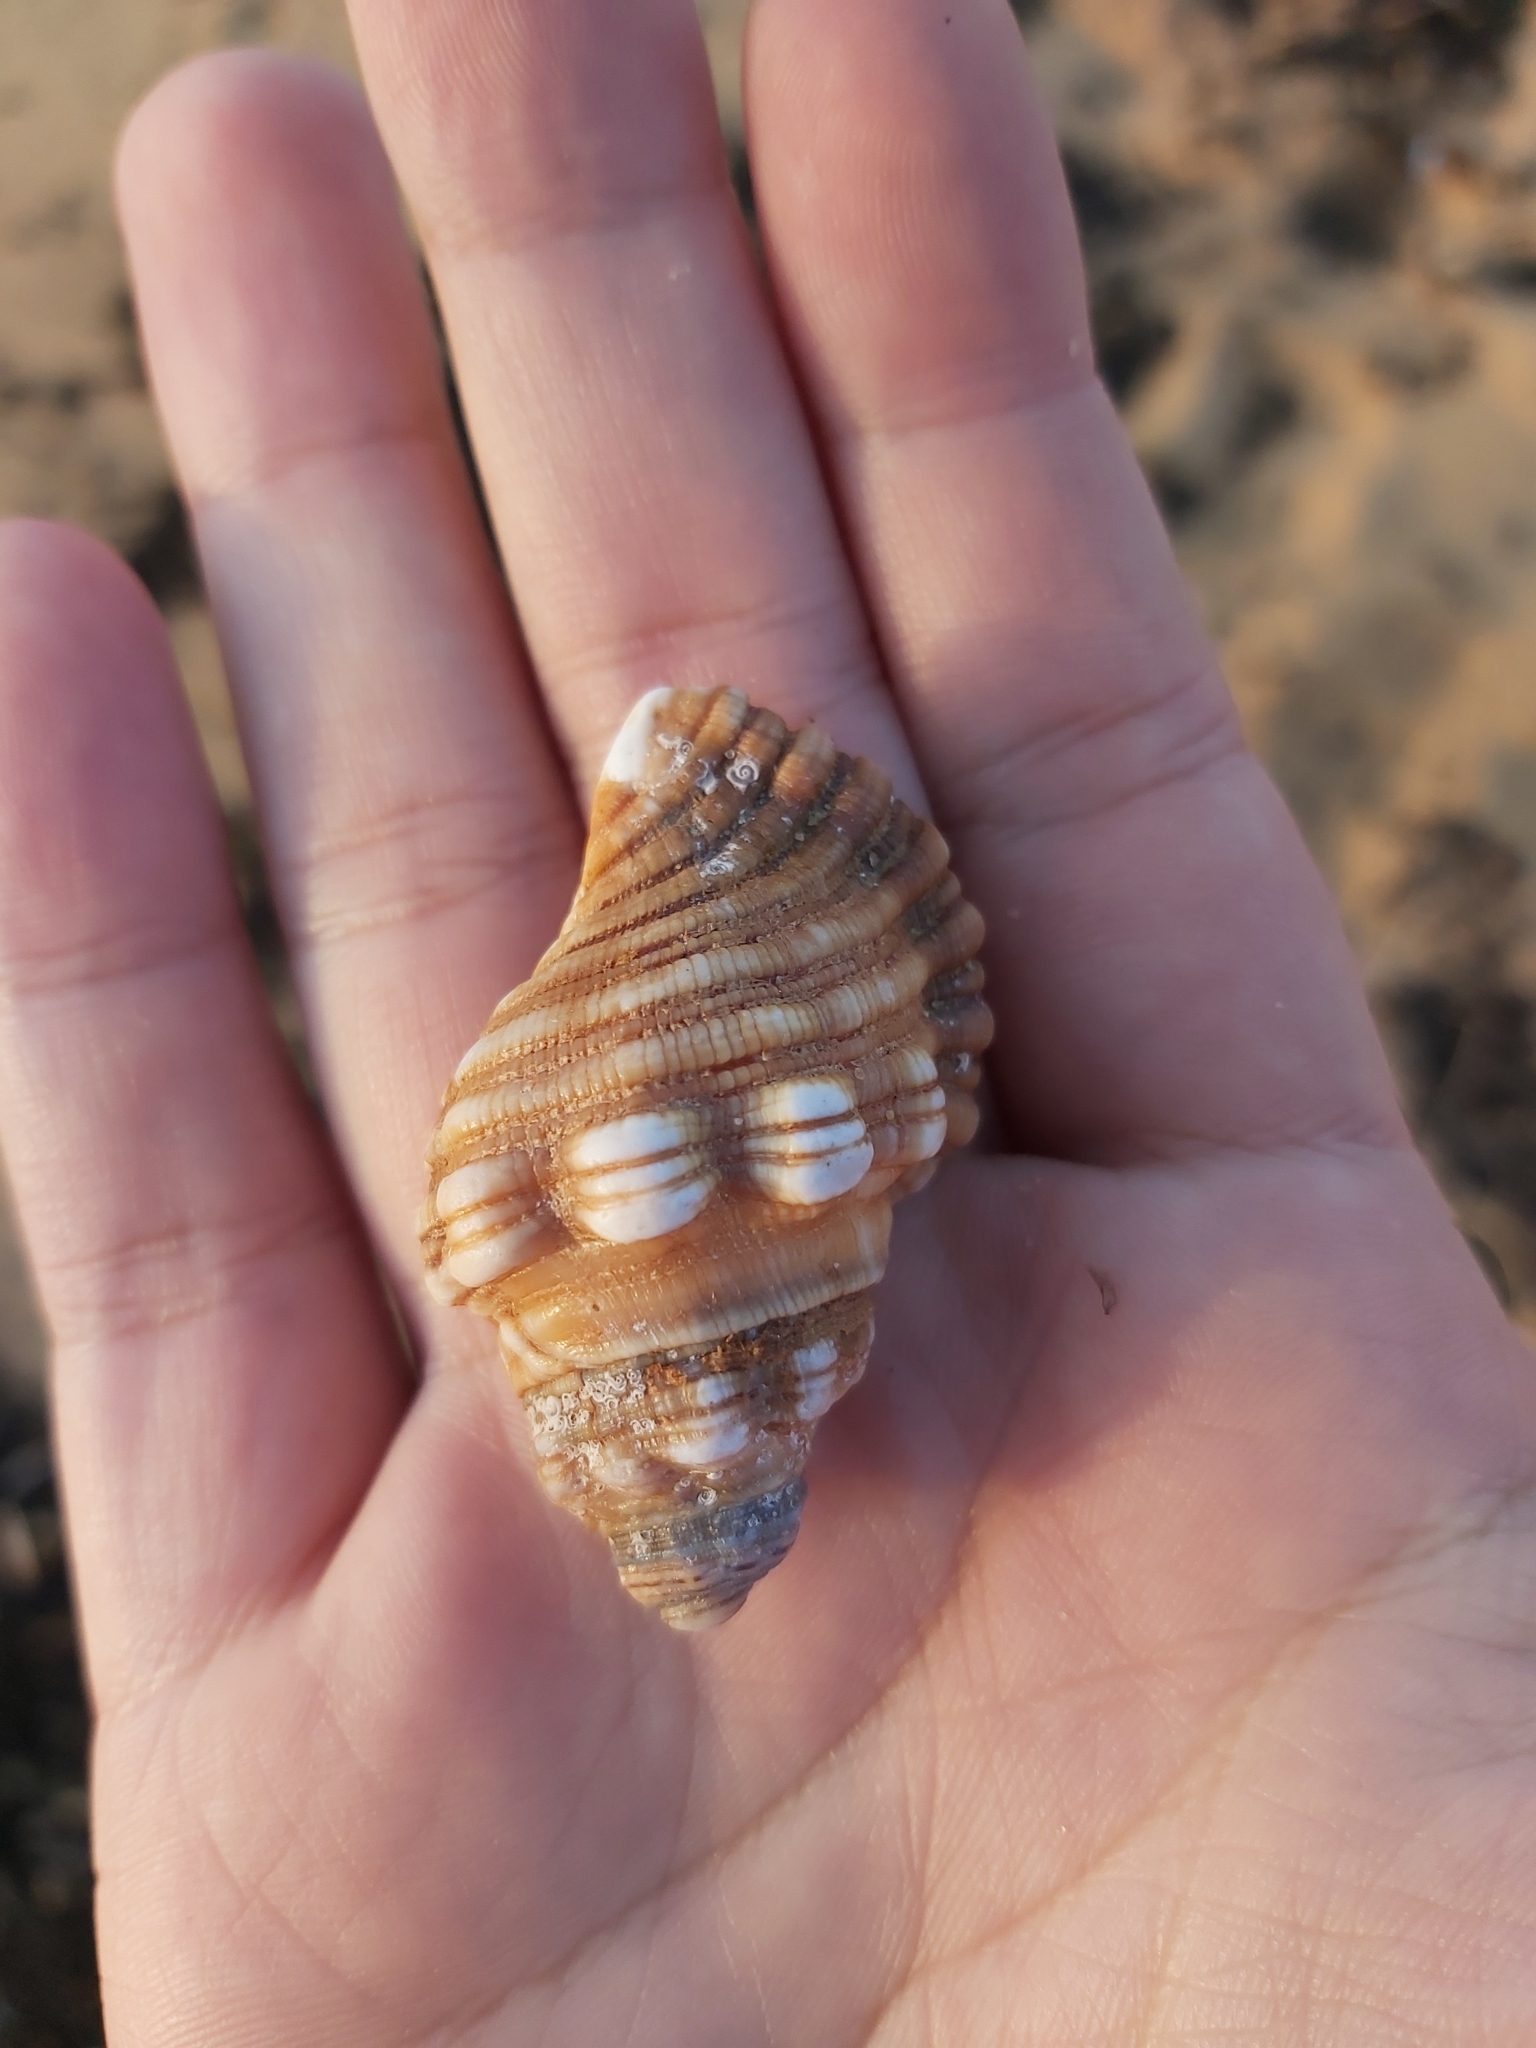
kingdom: Animalia
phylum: Mollusca
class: Gastropoda
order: Littorinimorpha
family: Cymatiidae
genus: Cabestana
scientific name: Cabestana spengleri
